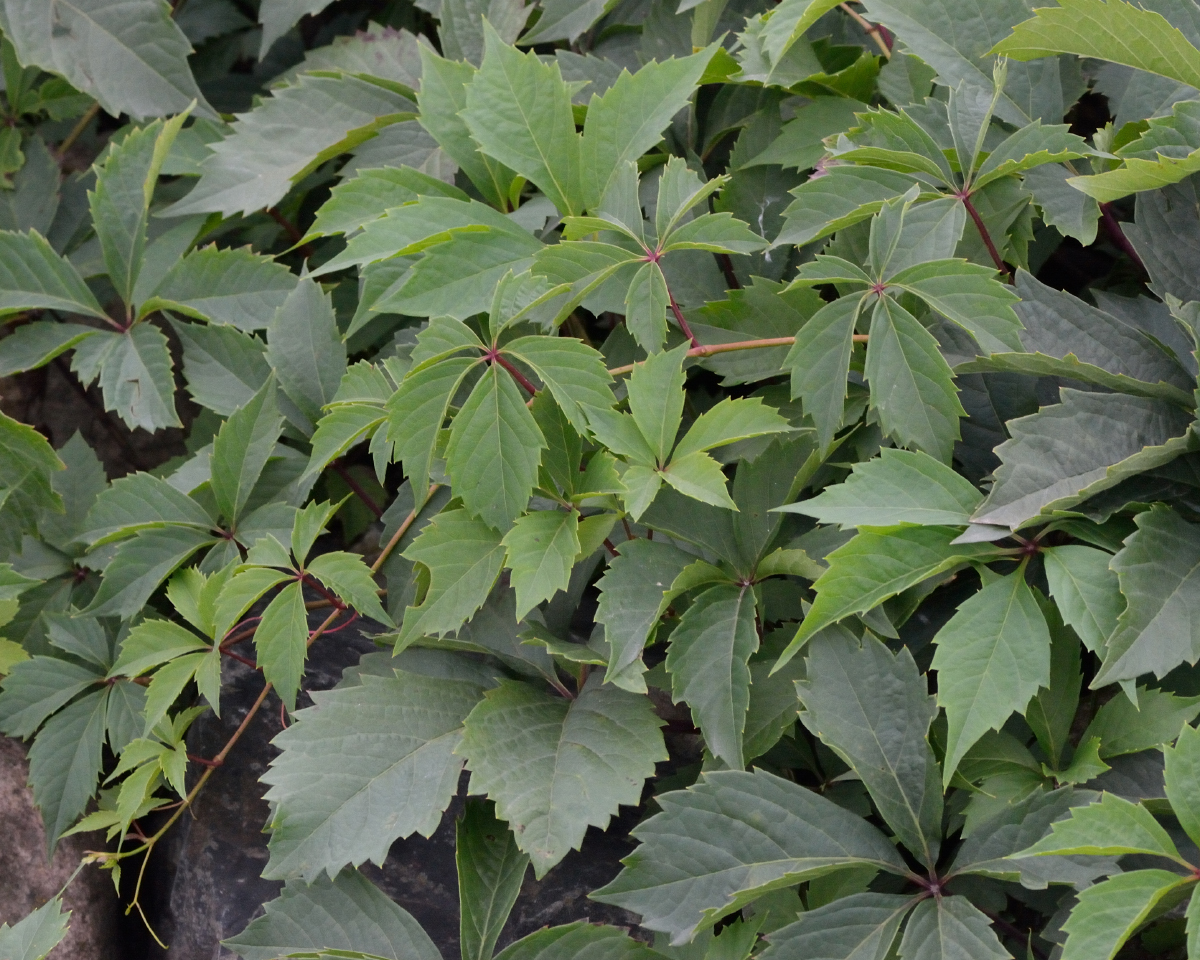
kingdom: Plantae
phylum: Tracheophyta
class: Magnoliopsida
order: Vitales
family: Vitaceae
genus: Parthenocissus
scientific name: Parthenocissus inserta
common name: False virginia-creeper
